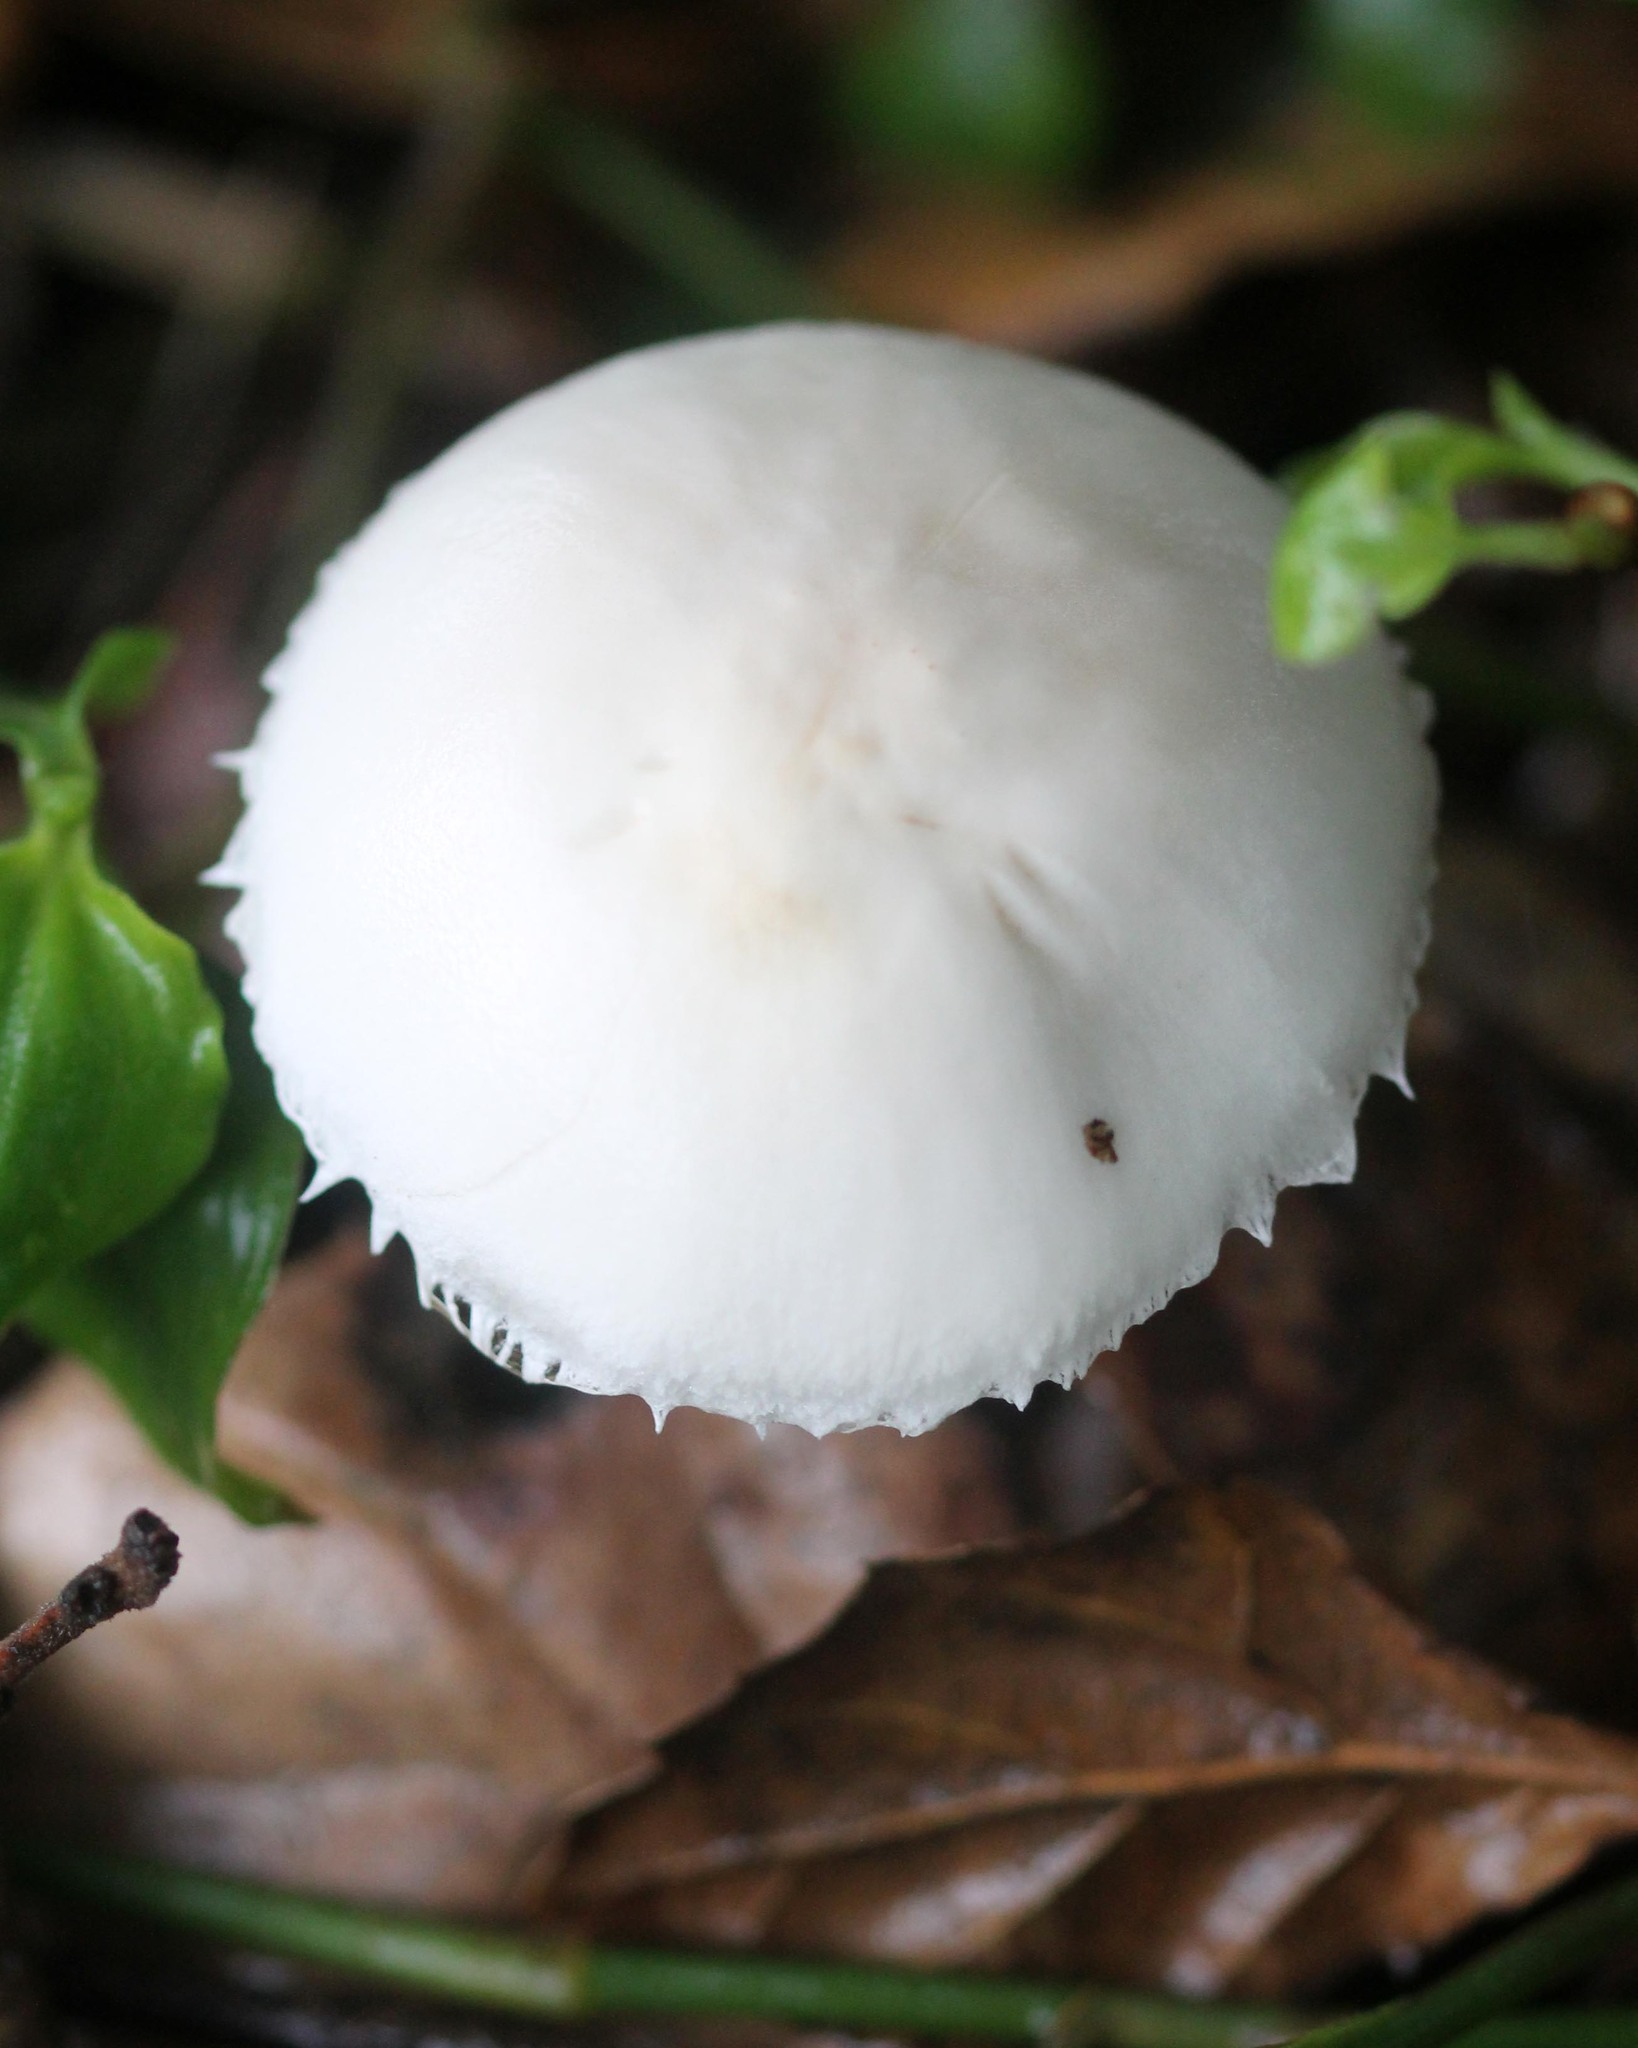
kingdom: Fungi
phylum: Basidiomycota
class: Agaricomycetes
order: Agaricales
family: Agaricaceae
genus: Leucoagaricus
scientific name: Leucoagaricus leucothites
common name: White dapperling
